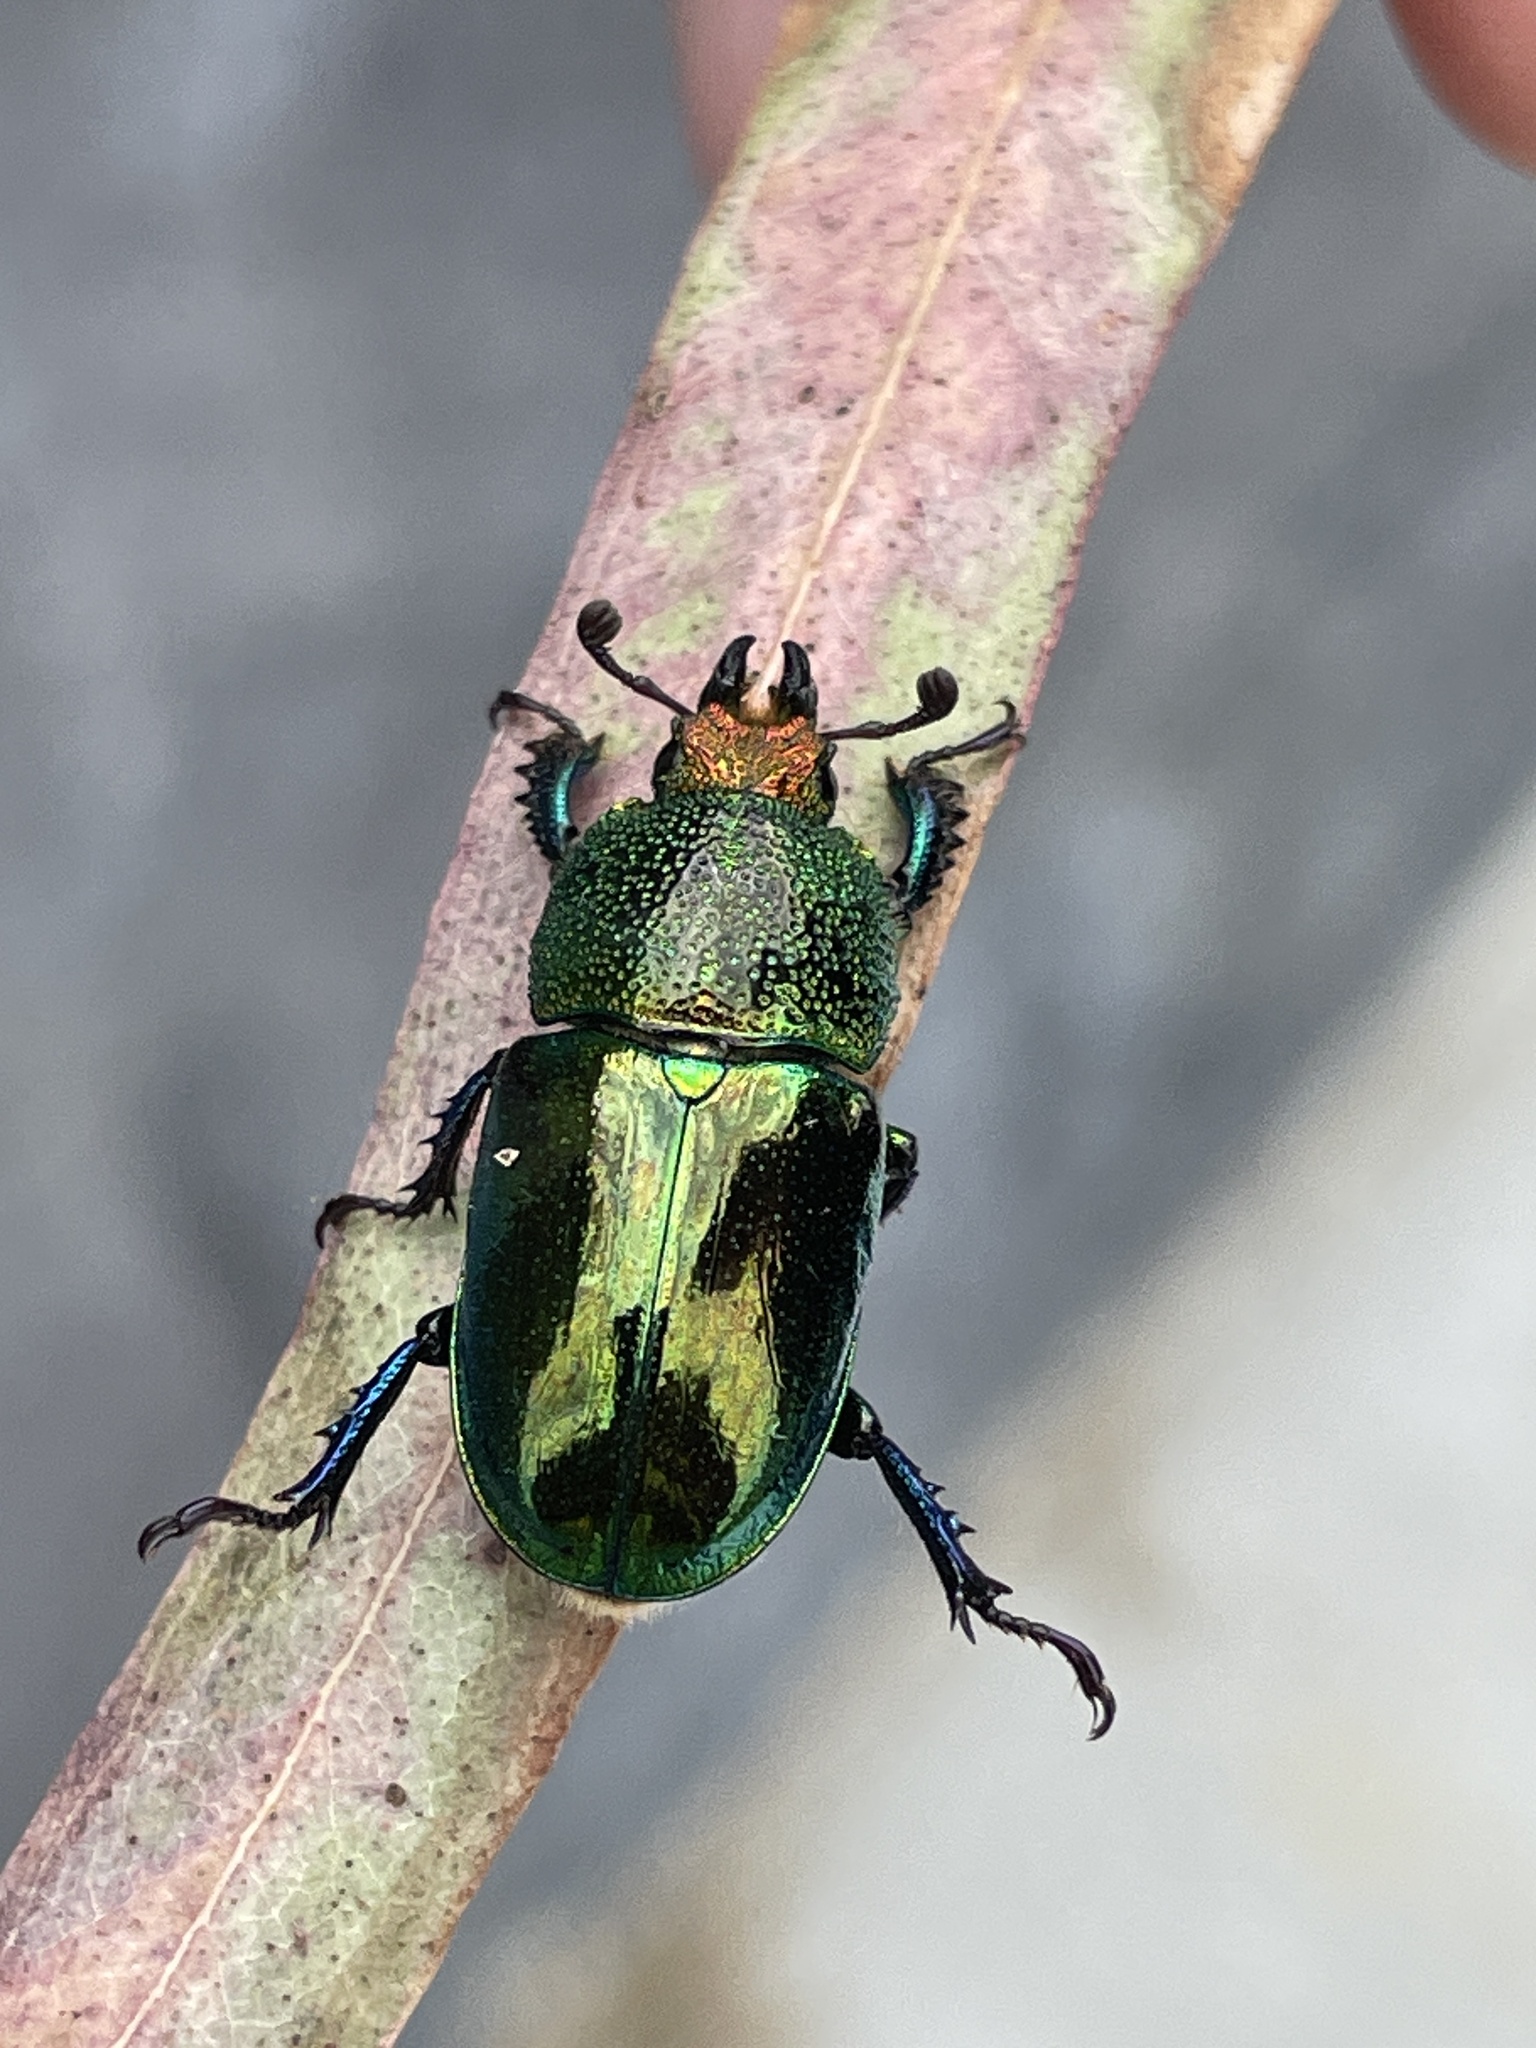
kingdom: Animalia
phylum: Arthropoda
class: Insecta
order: Coleoptera
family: Lucanidae
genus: Lamprima
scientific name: Lamprima aurata
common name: Golden stag beetle
